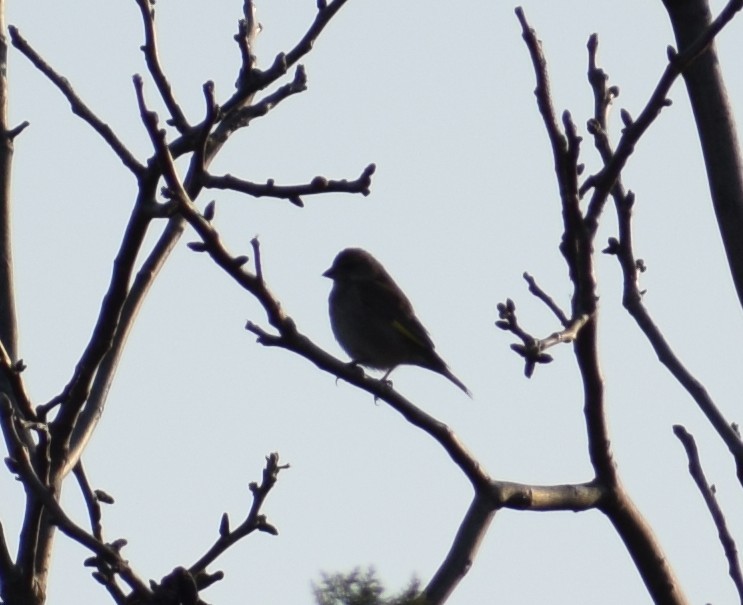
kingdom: Plantae
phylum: Tracheophyta
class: Liliopsida
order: Poales
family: Poaceae
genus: Chloris
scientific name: Chloris chloris
